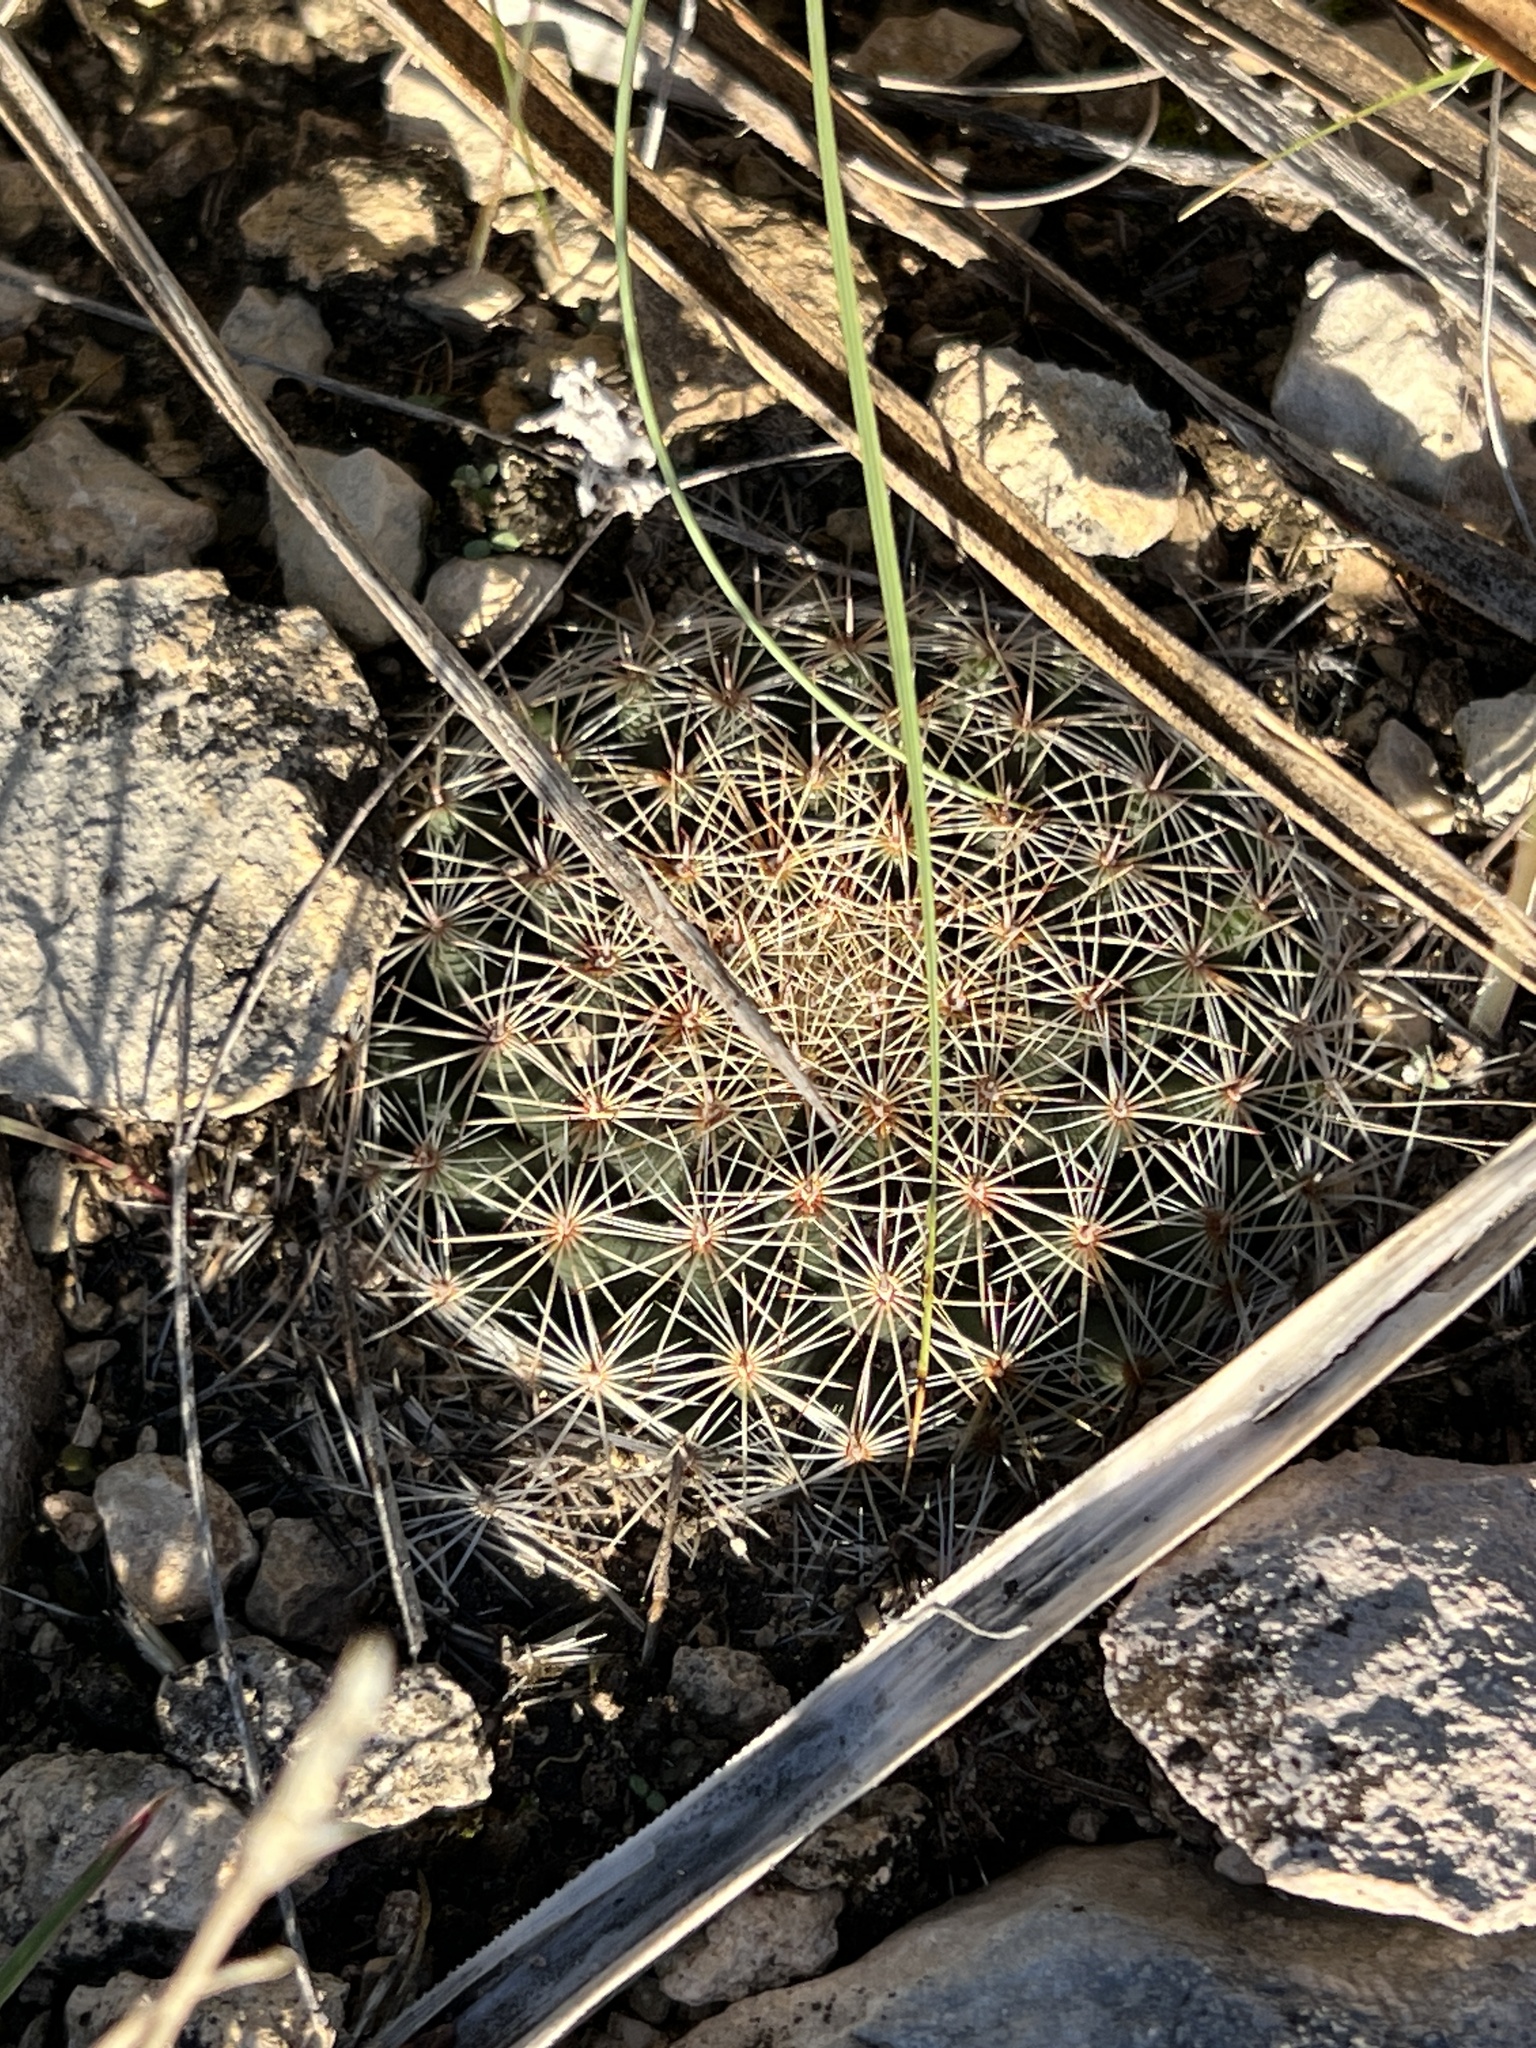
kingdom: Plantae
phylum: Tracheophyta
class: Magnoliopsida
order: Caryophyllales
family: Cactaceae
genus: Mammillaria
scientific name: Mammillaria heyderi
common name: Little nipple cactus
